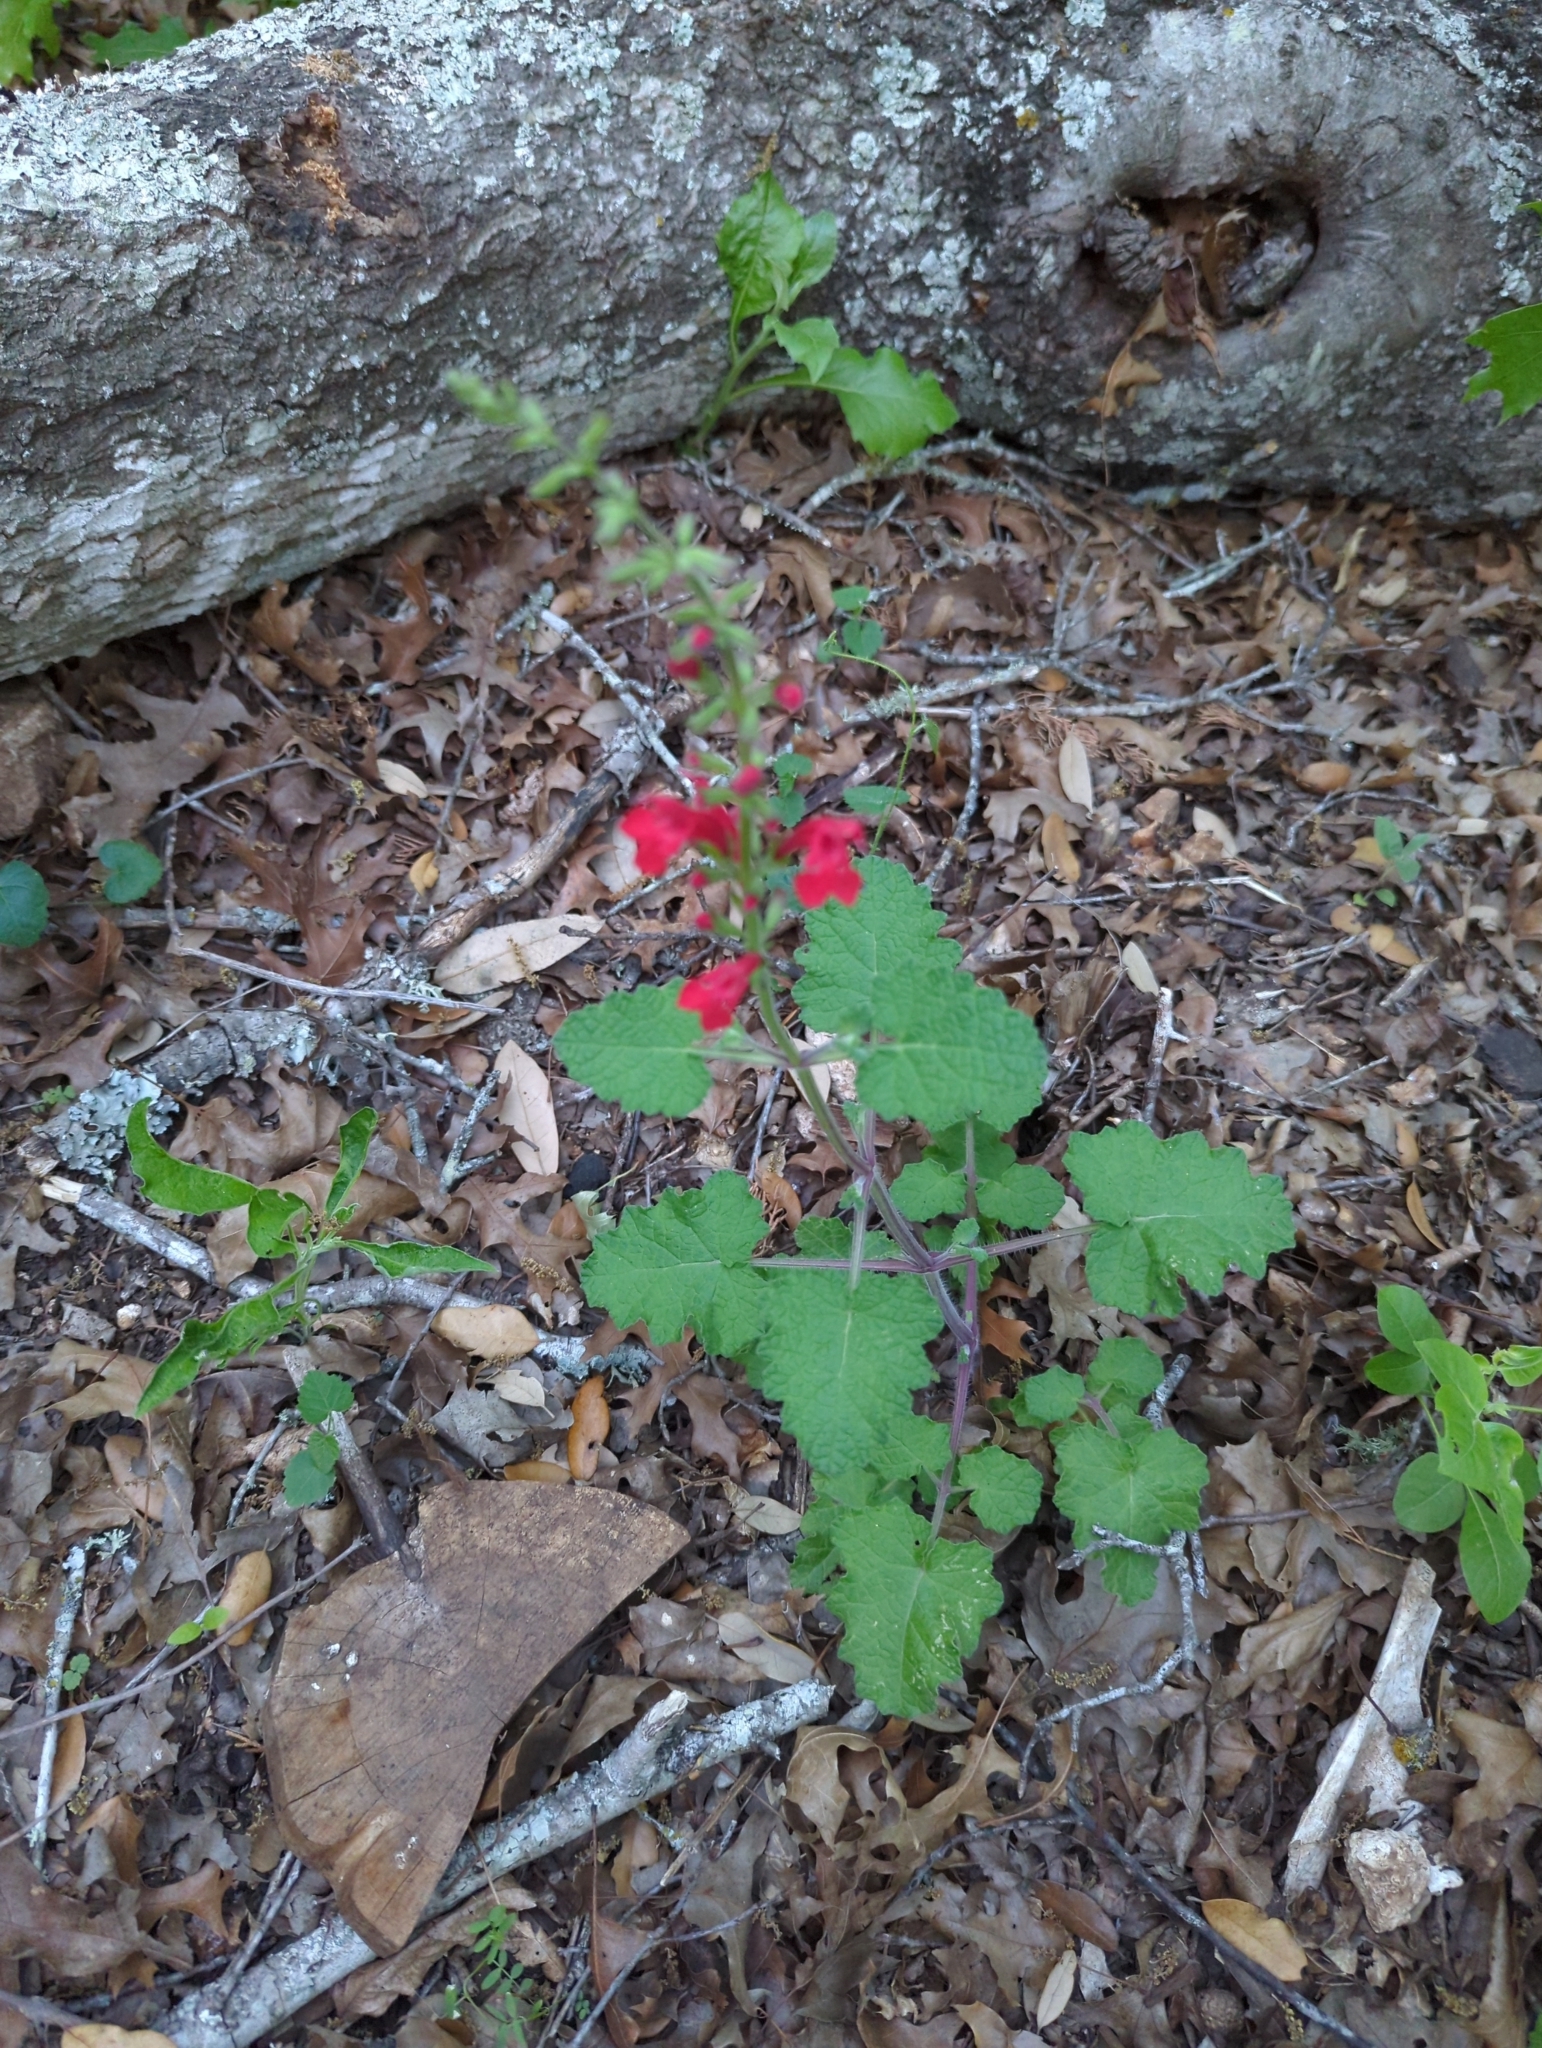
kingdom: Plantae
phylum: Tracheophyta
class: Magnoliopsida
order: Lamiales
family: Lamiaceae
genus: Salvia
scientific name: Salvia roemeriana
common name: Cedar sage
